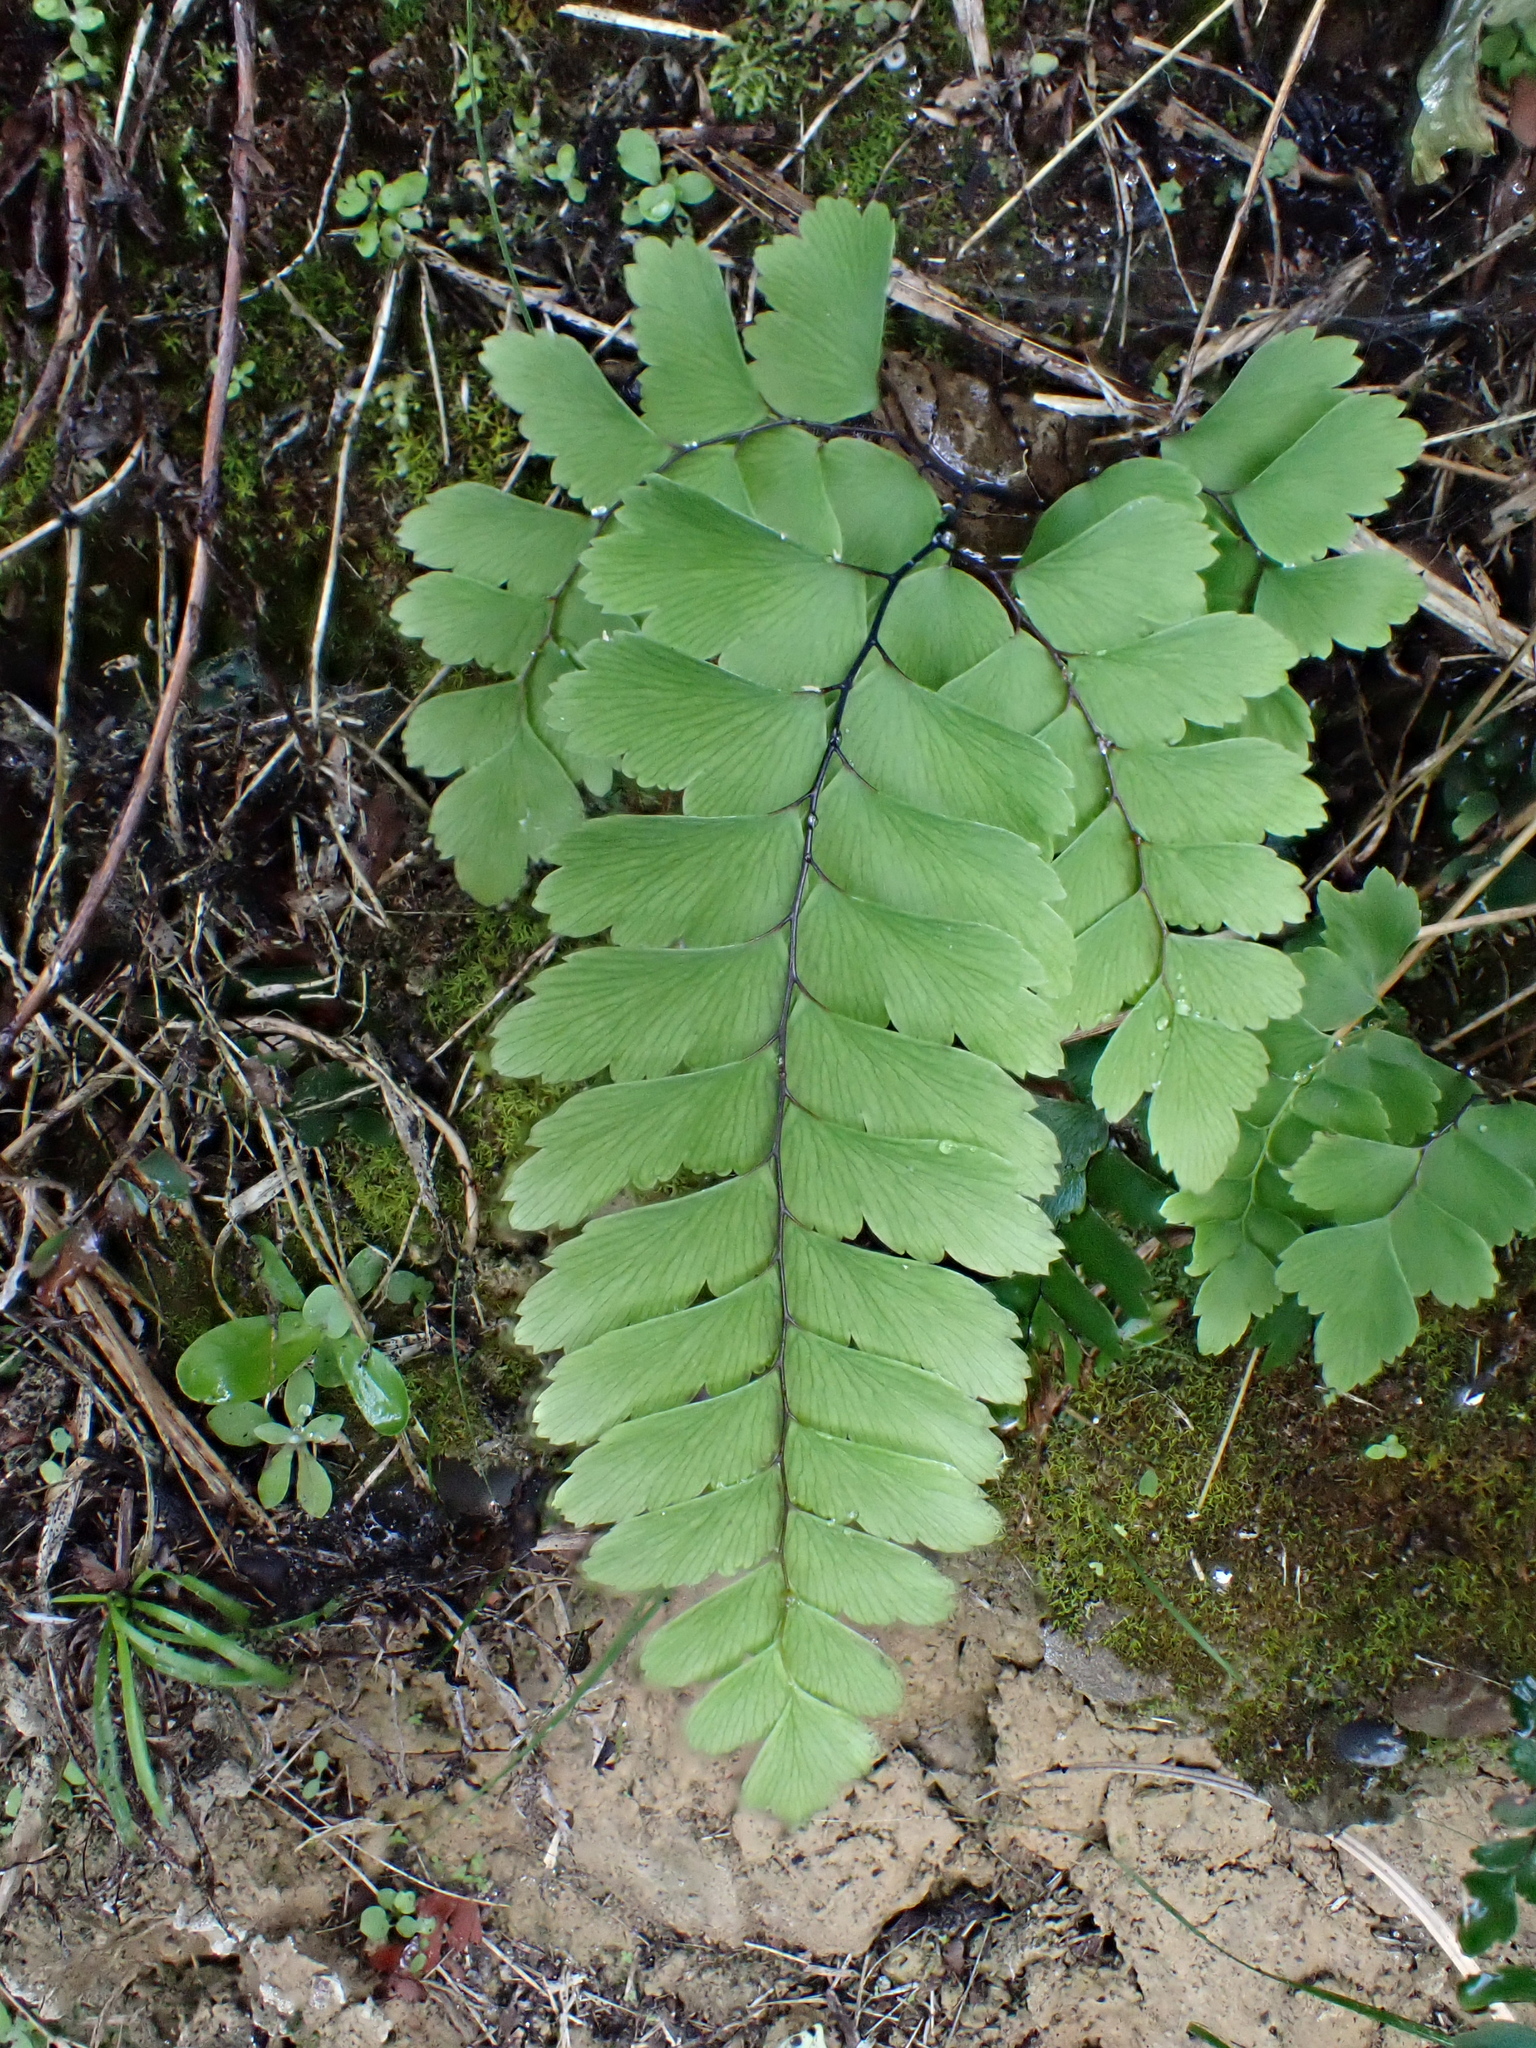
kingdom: Plantae
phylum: Tracheophyta
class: Polypodiopsida
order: Polypodiales
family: Pteridaceae
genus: Adiantum
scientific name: Adiantum cunninghamii
